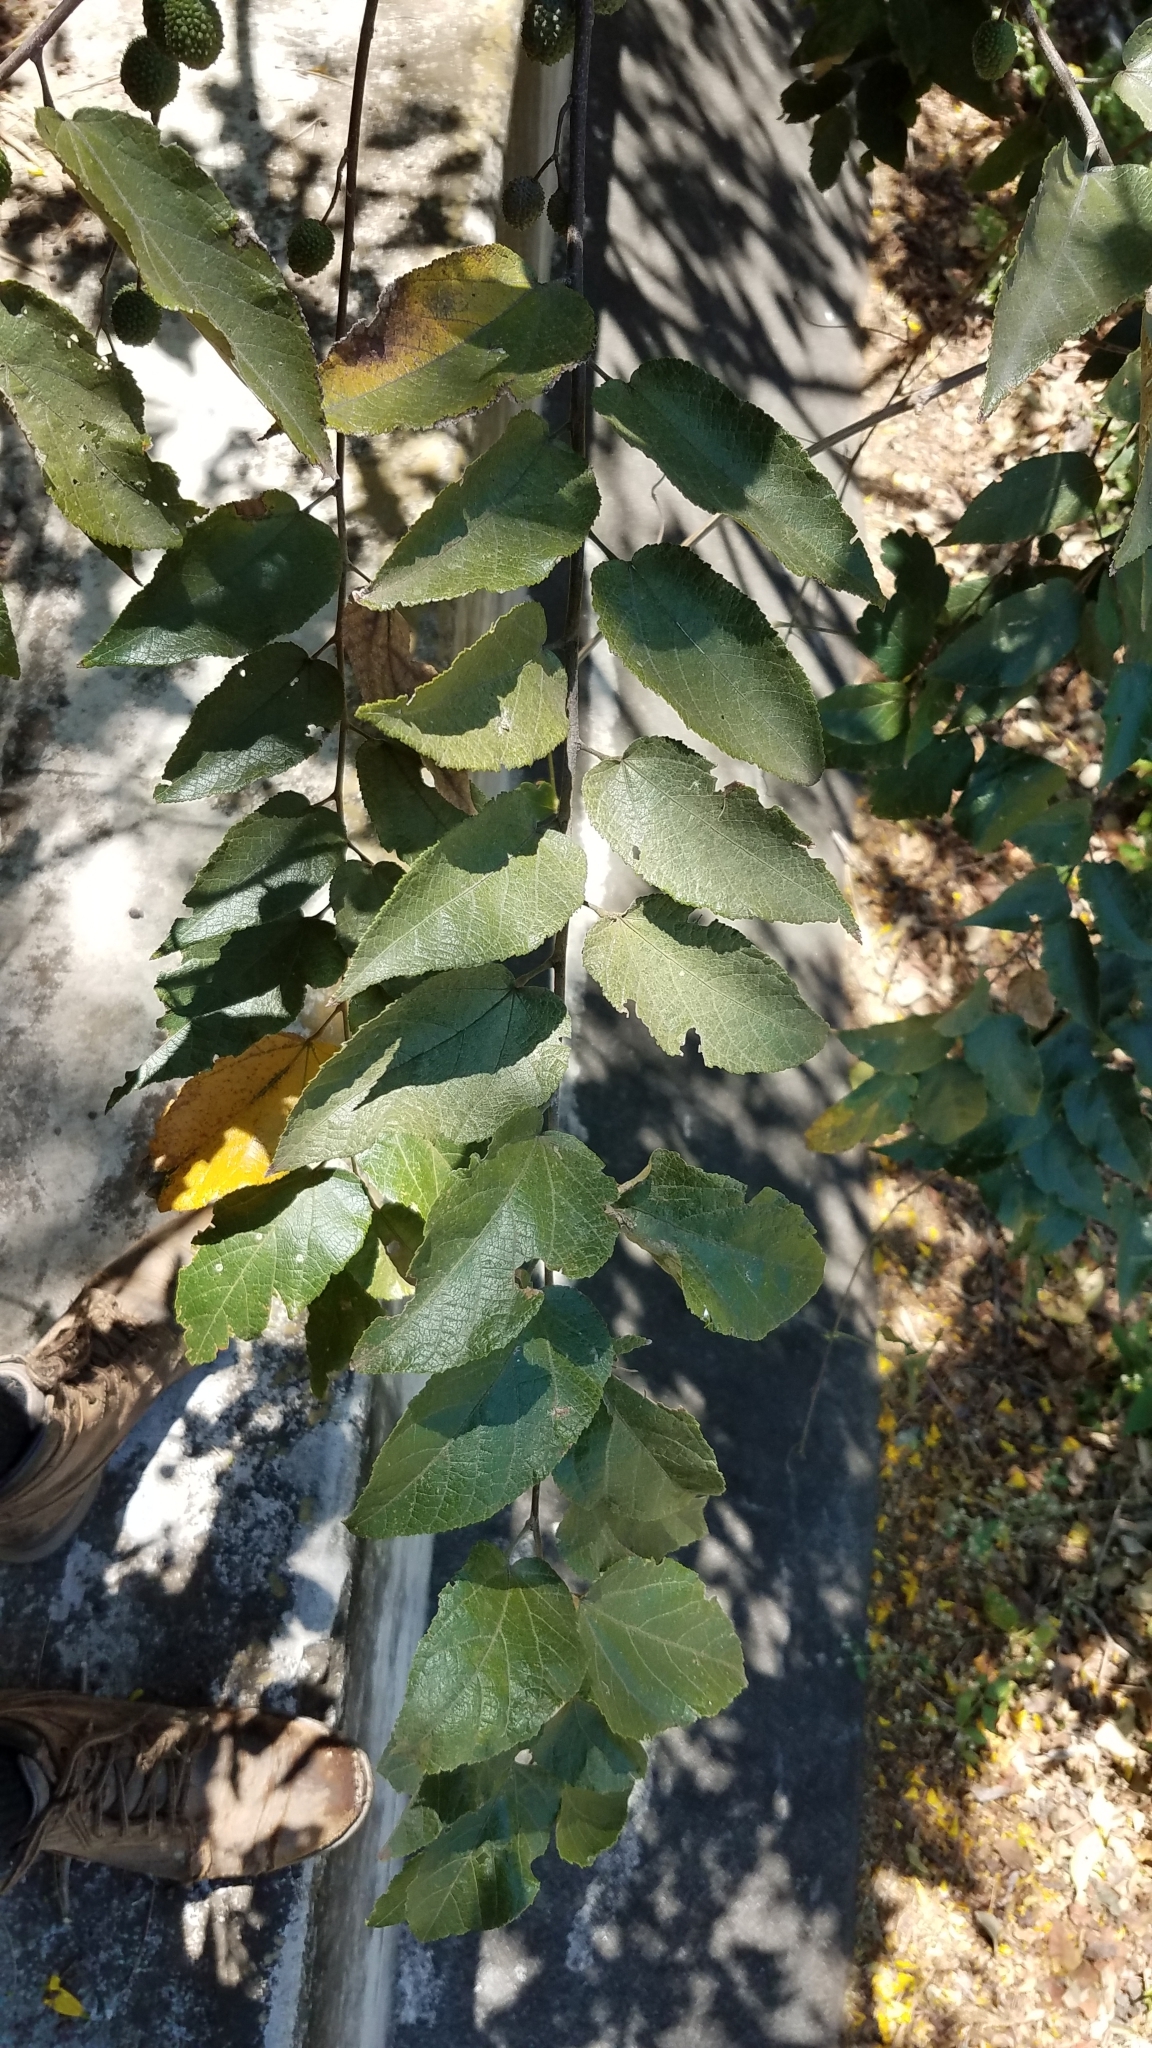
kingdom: Plantae
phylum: Tracheophyta
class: Magnoliopsida
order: Malvales
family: Malvaceae
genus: Guazuma
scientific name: Guazuma ulmifolia
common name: Bastard-cedar
